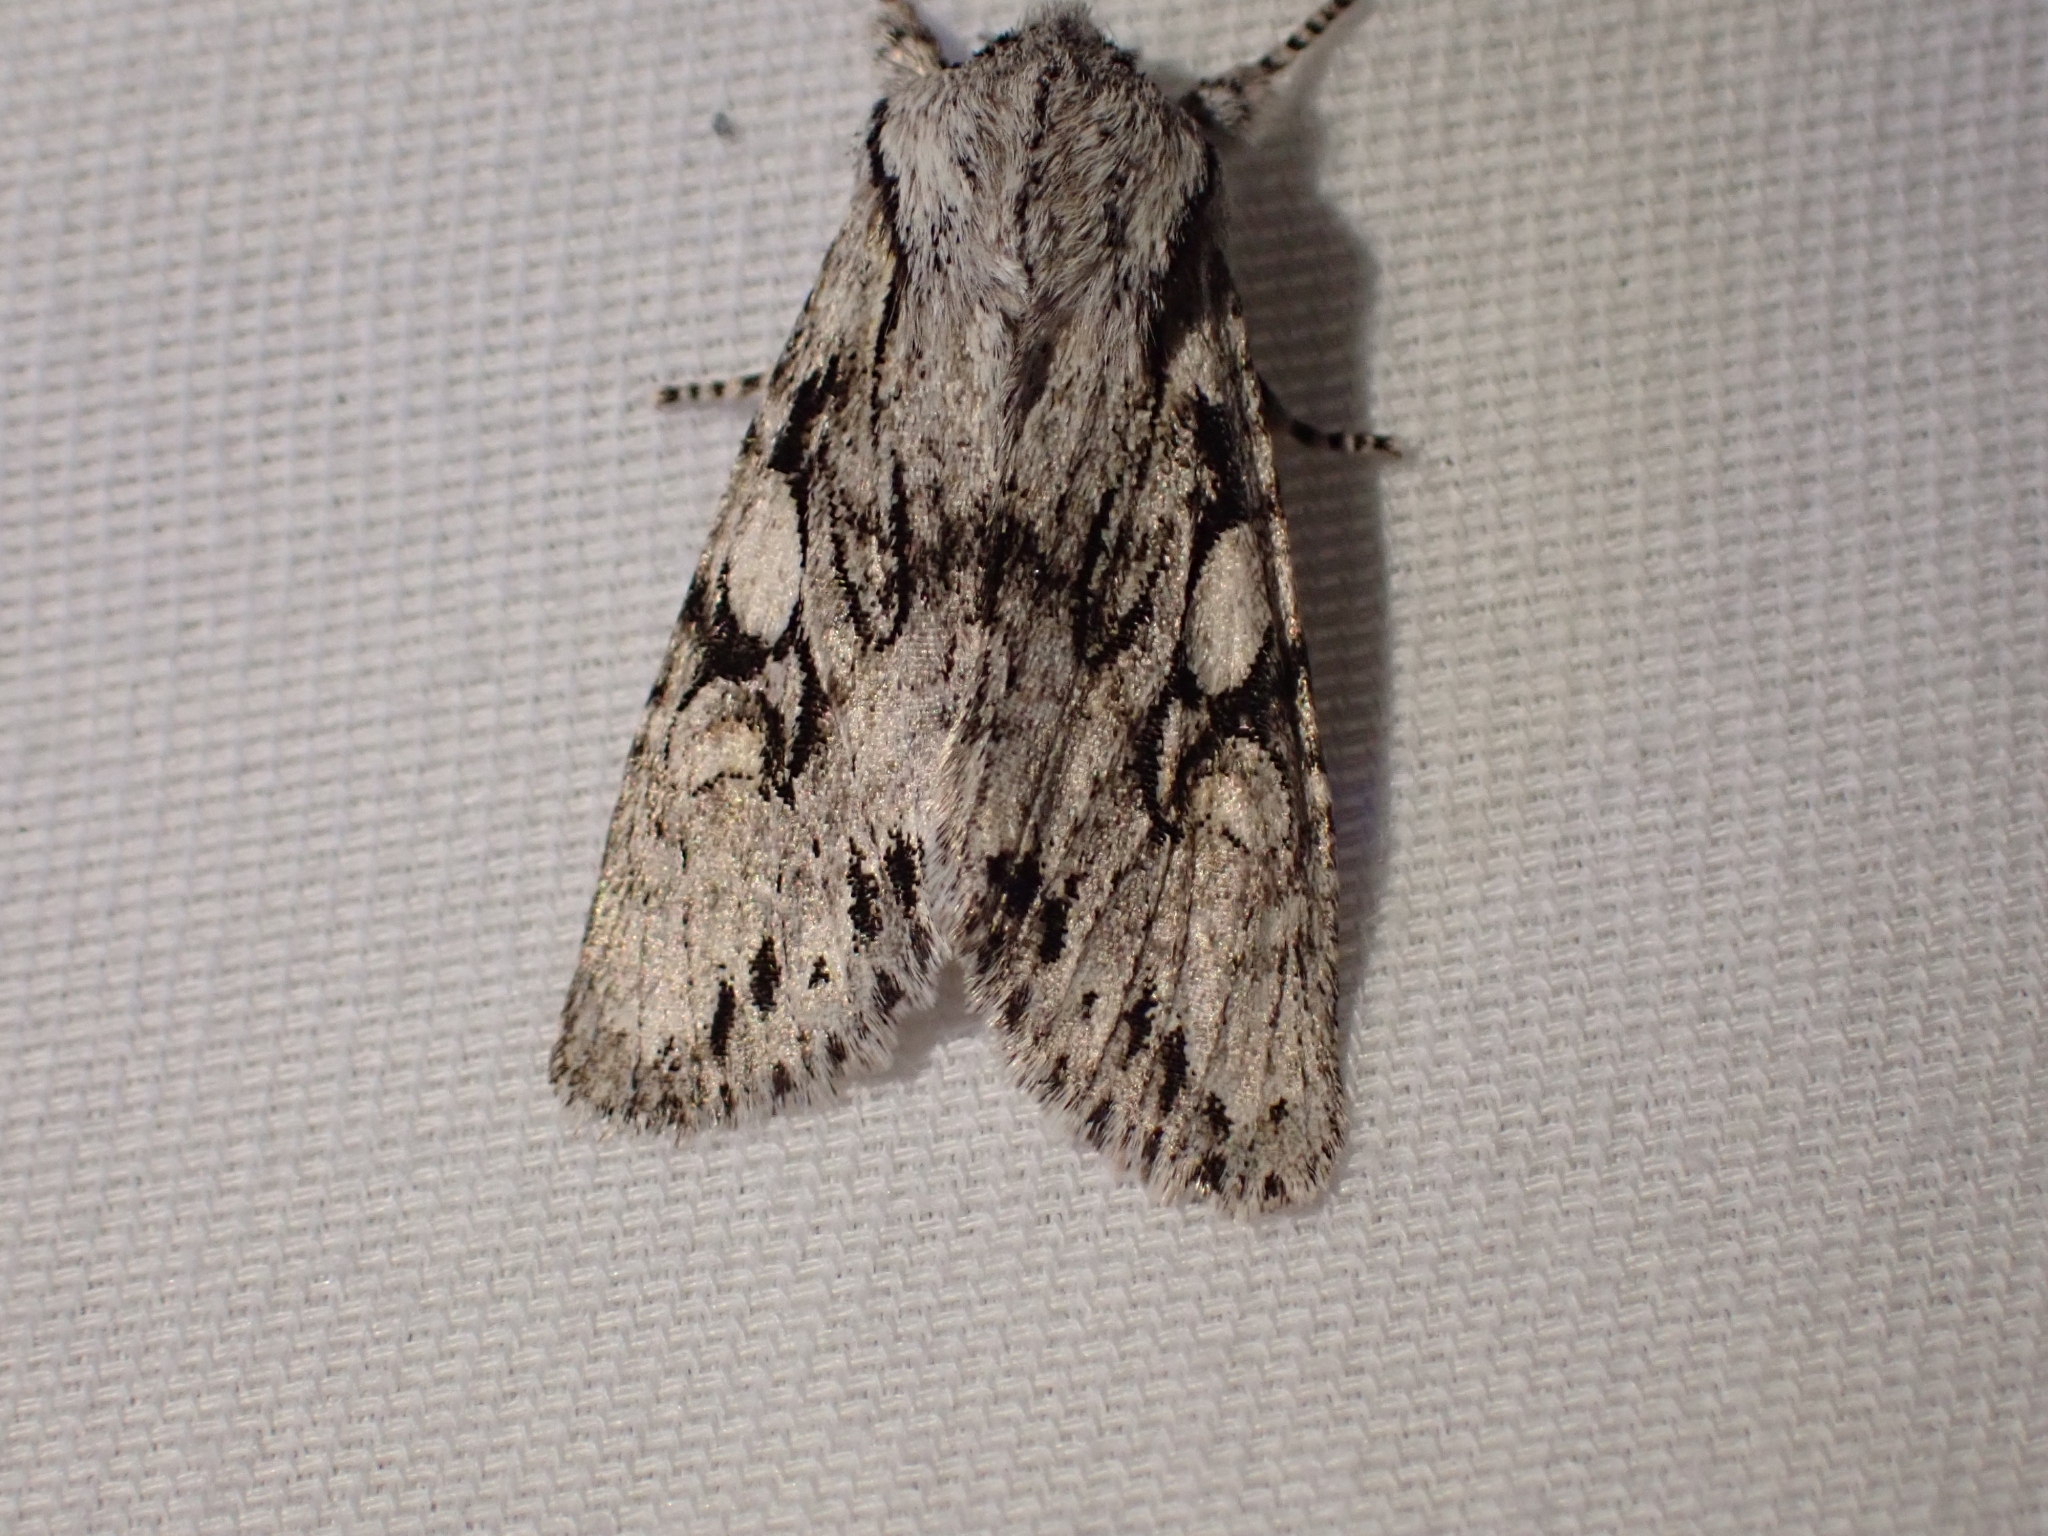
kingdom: Animalia
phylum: Arthropoda
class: Insecta
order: Lepidoptera
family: Noctuidae
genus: Egira
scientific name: Egira simplex
